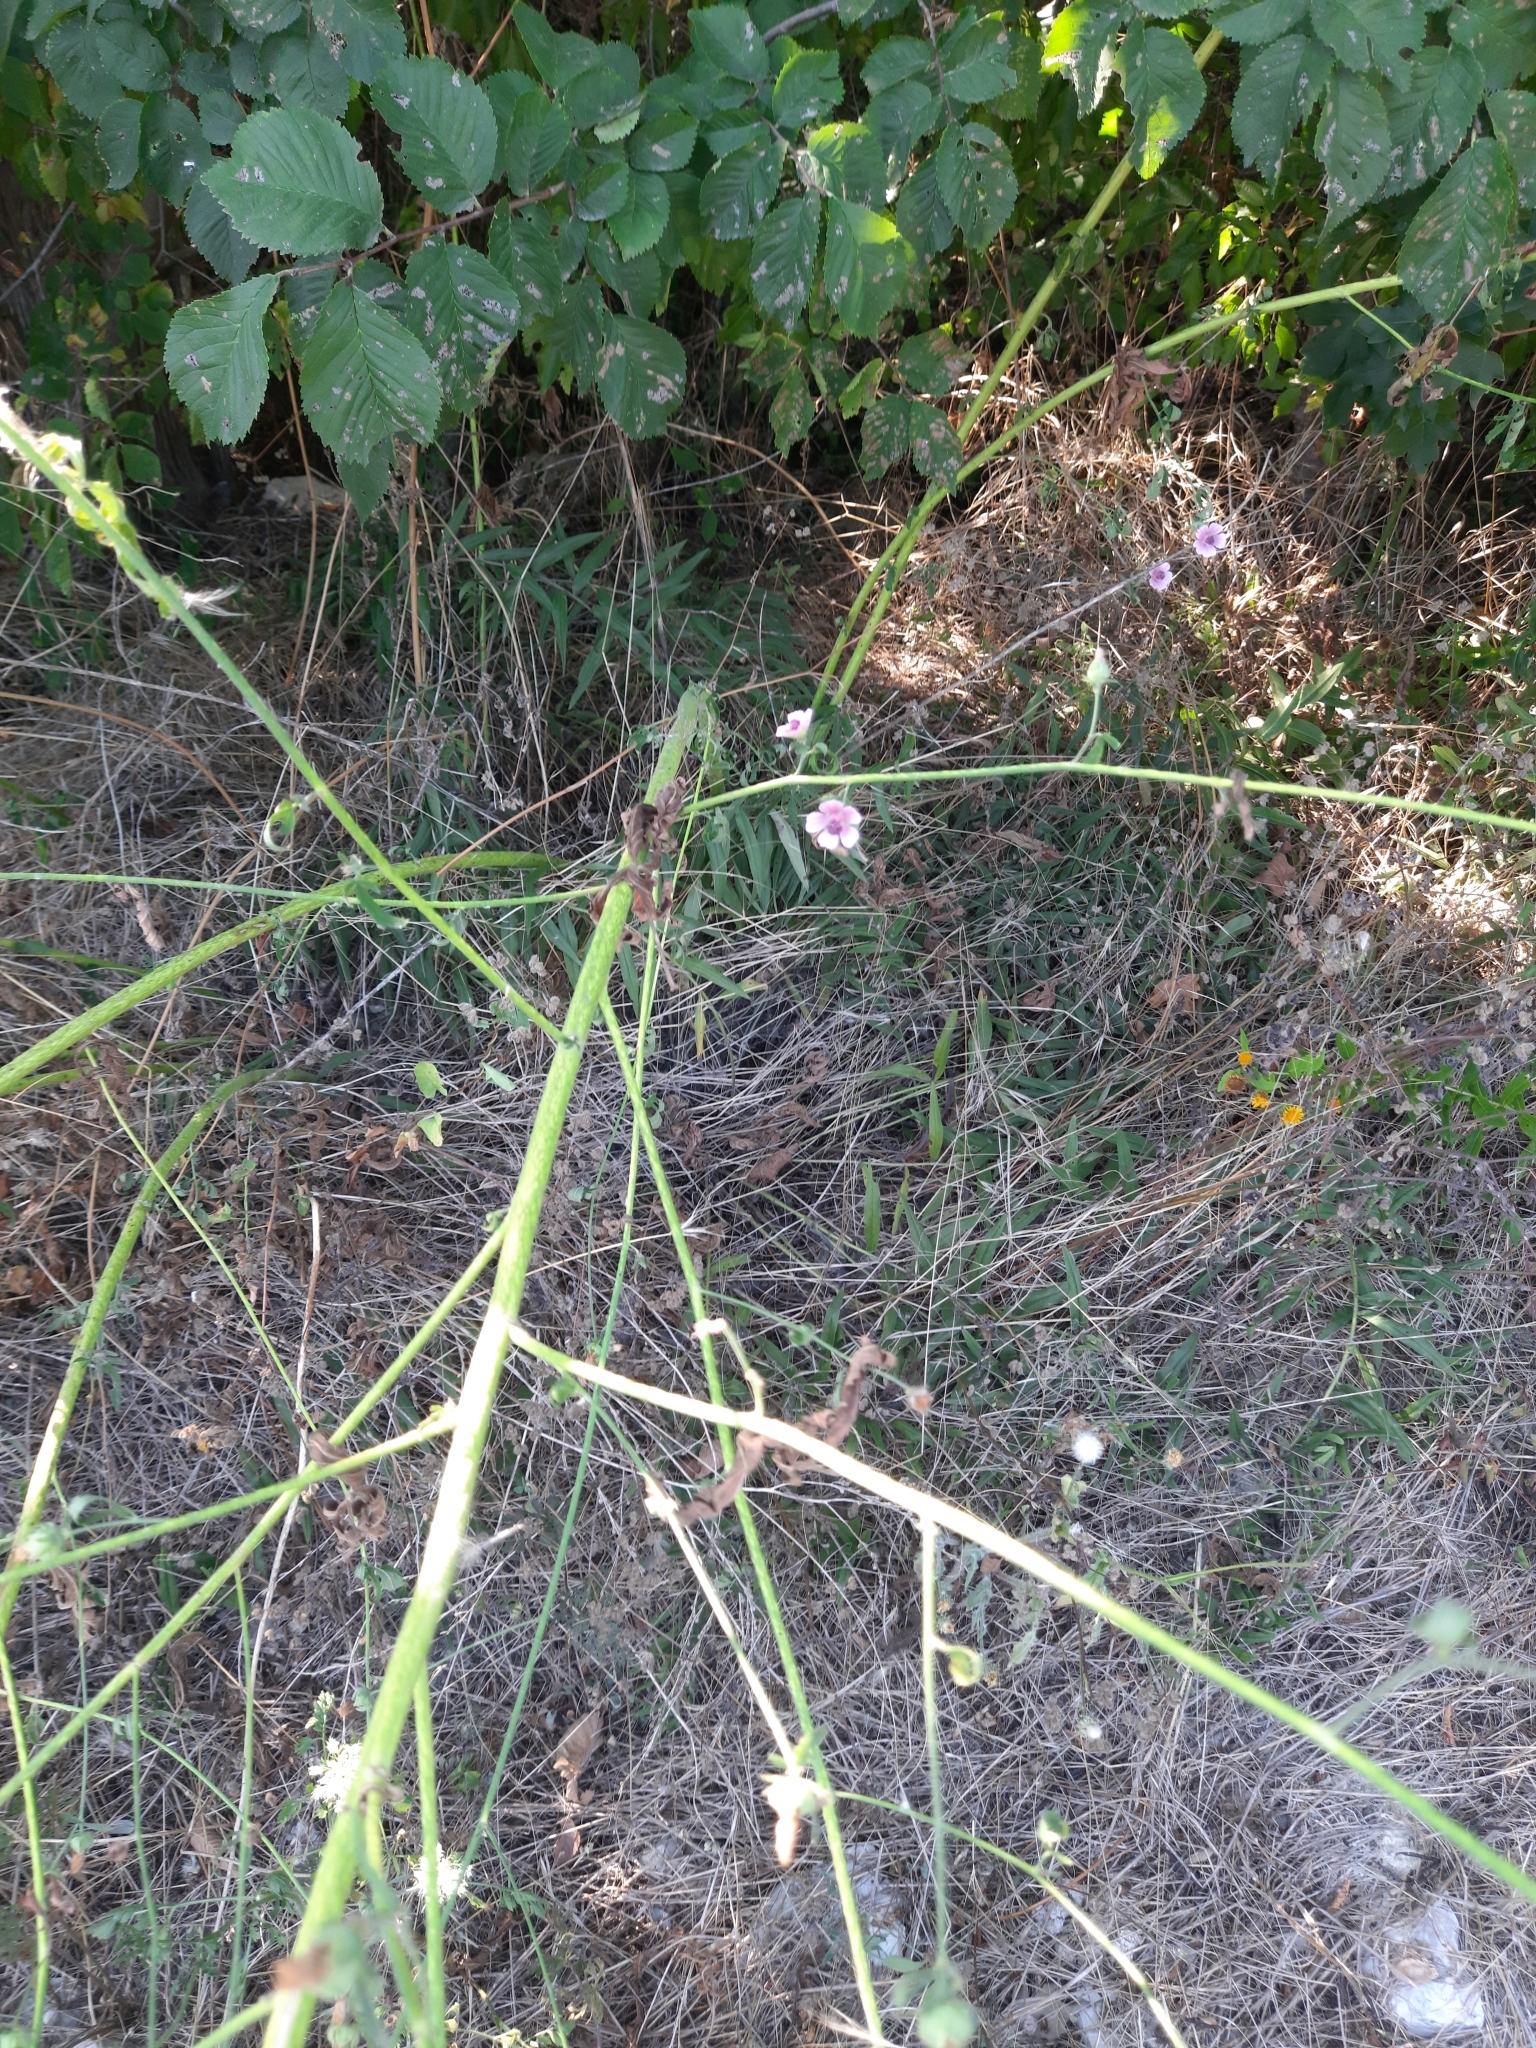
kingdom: Plantae
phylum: Tracheophyta
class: Magnoliopsida
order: Malvales
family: Malvaceae
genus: Althaea
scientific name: Althaea cannabina
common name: Palm-leaf marshmallow
